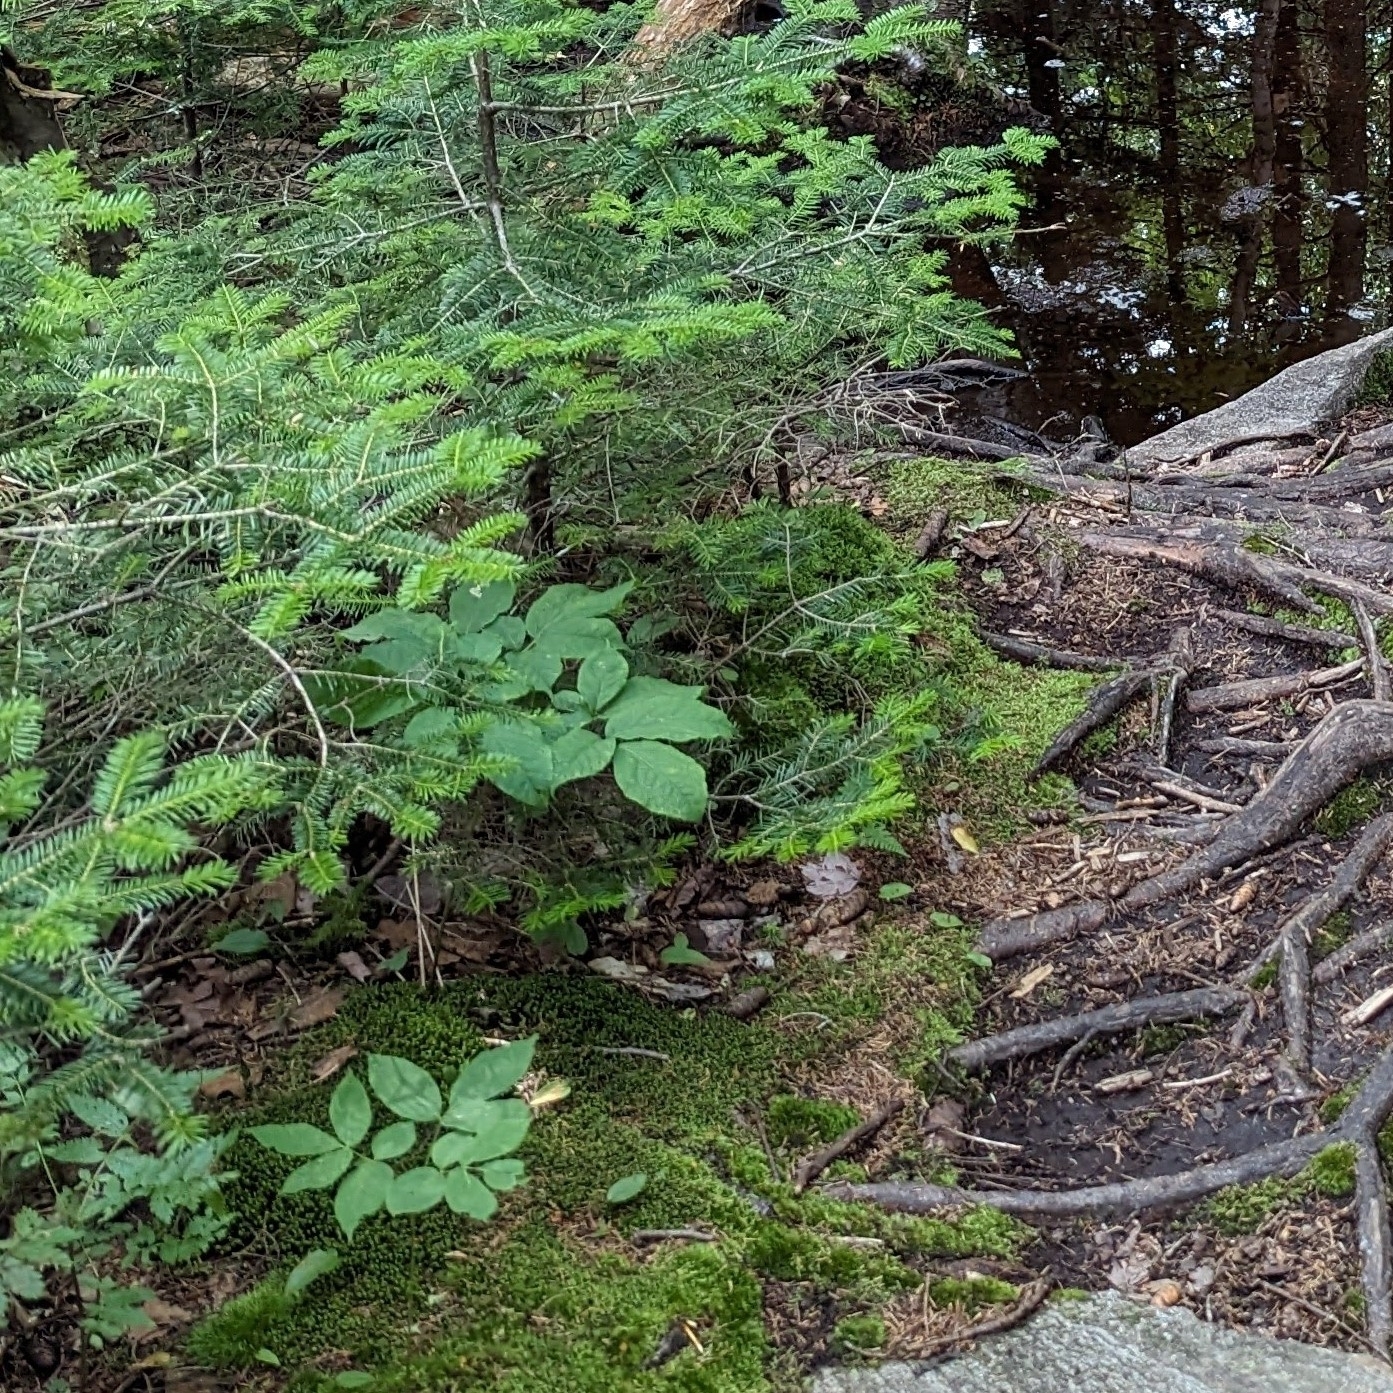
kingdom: Plantae
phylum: Tracheophyta
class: Magnoliopsida
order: Apiales
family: Araliaceae
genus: Aralia
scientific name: Aralia nudicaulis
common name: Wild sarsaparilla
